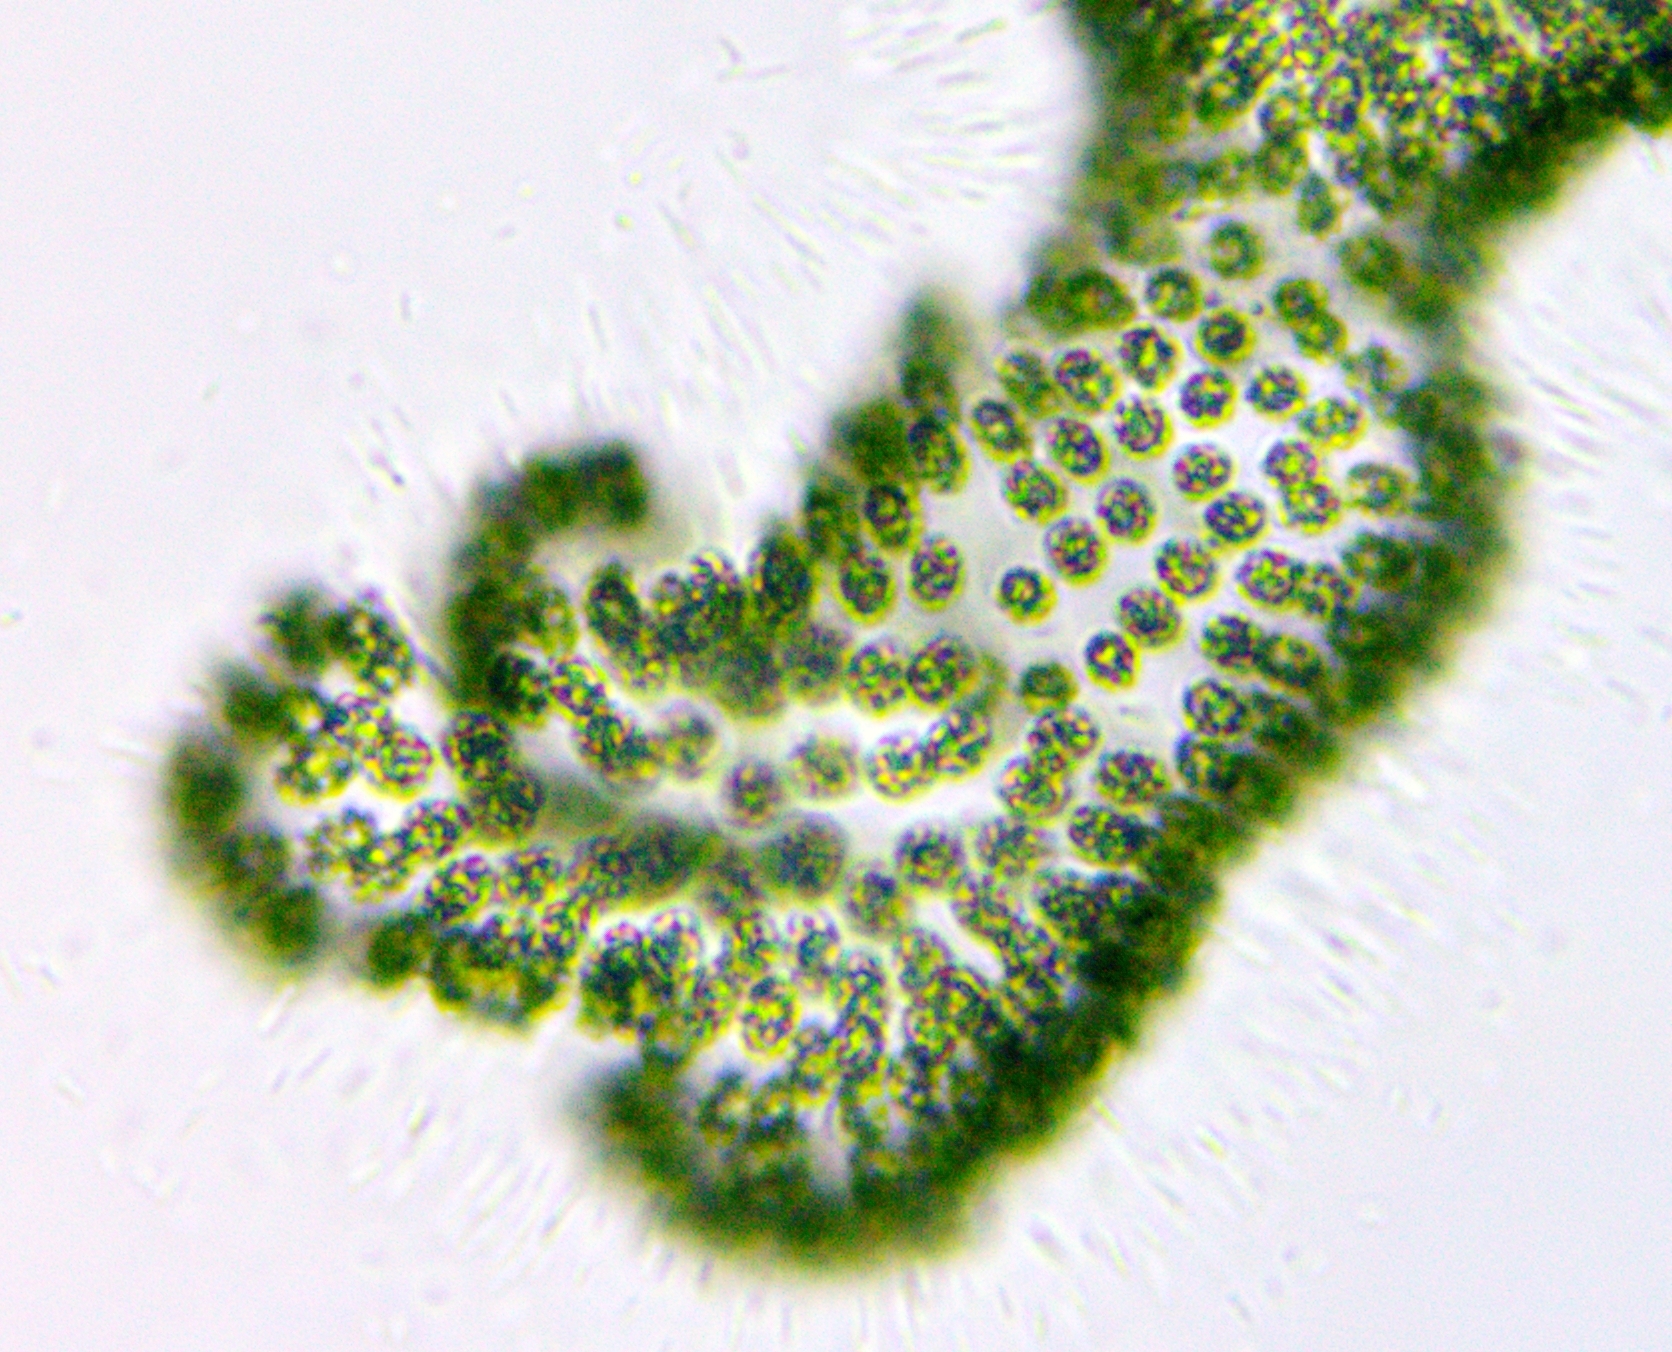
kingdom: Bacteria
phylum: Cyanobacteria
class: Cyanobacteriia
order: Synechococcales
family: Coelosphaeriaceae
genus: Woronichinia
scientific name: Woronichinia naegeliana
